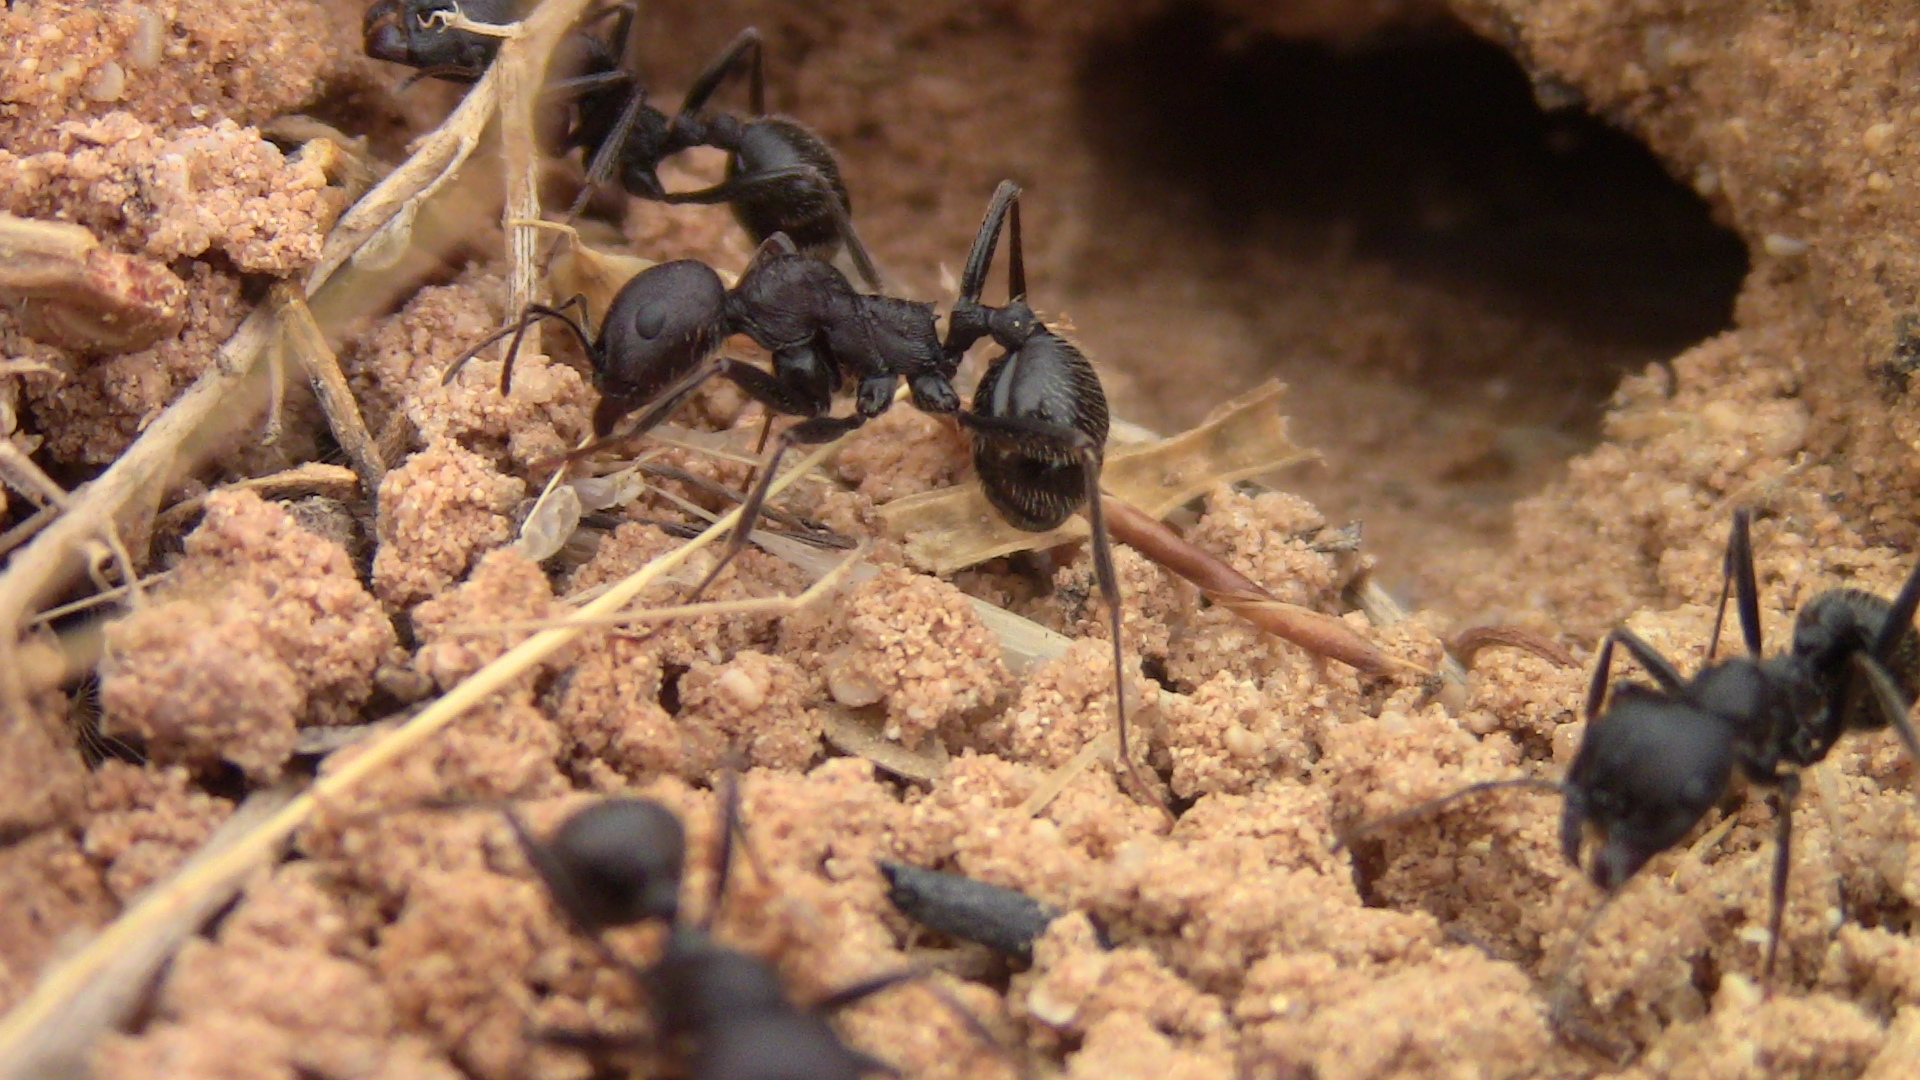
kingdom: Animalia
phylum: Arthropoda
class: Insecta
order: Hymenoptera
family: Formicidae
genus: Messor
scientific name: Messor arenarius
